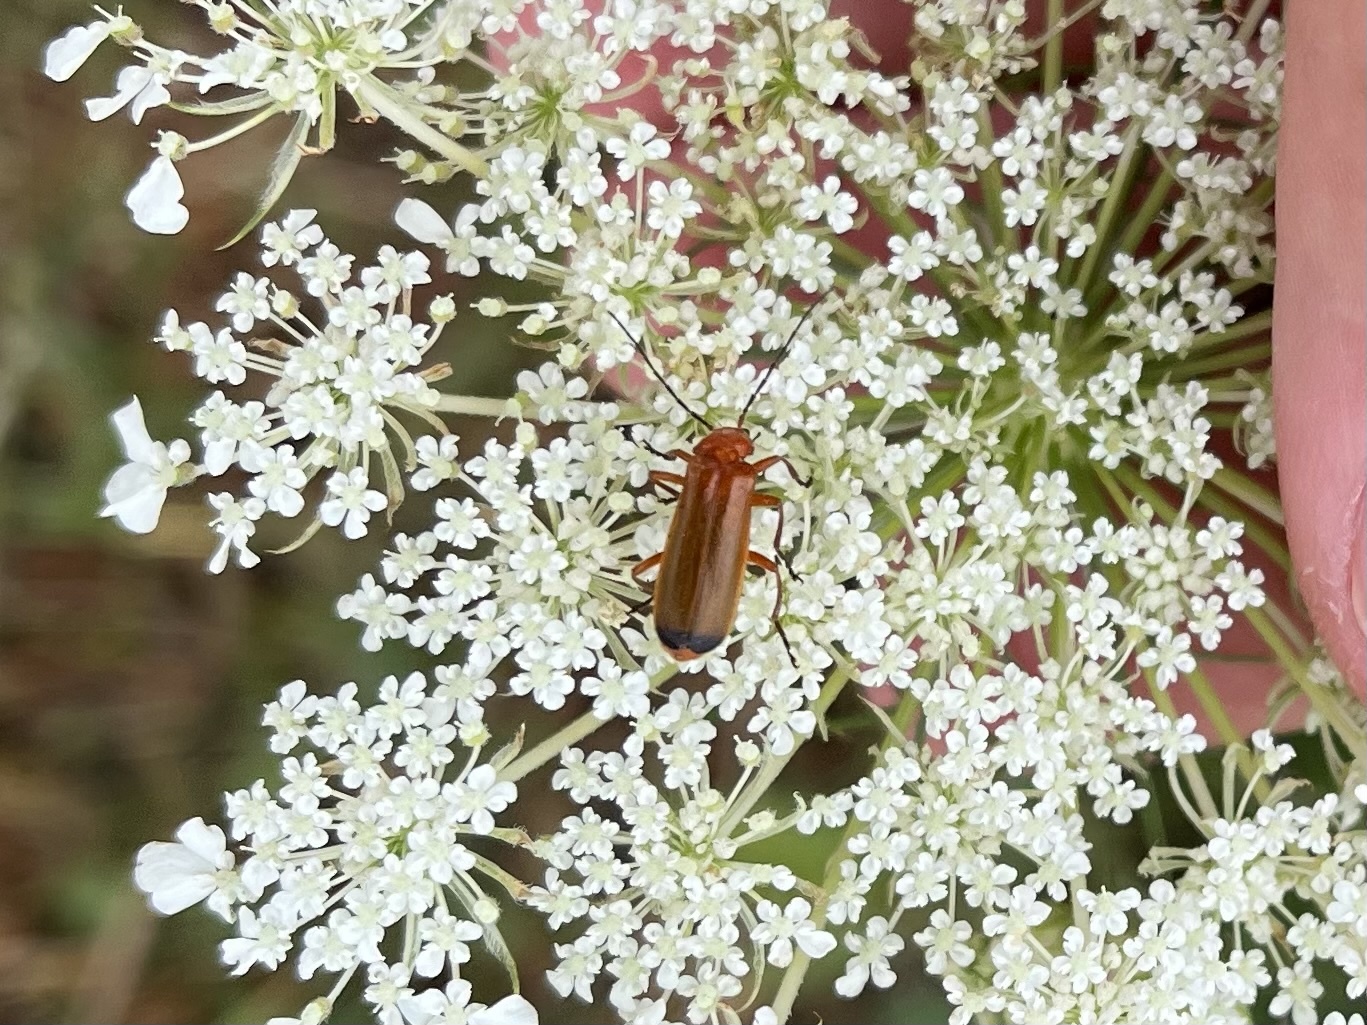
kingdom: Animalia
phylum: Arthropoda
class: Insecta
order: Coleoptera
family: Cantharidae
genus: Rhagonycha
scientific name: Rhagonycha fulva
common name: Common red soldier beetle
